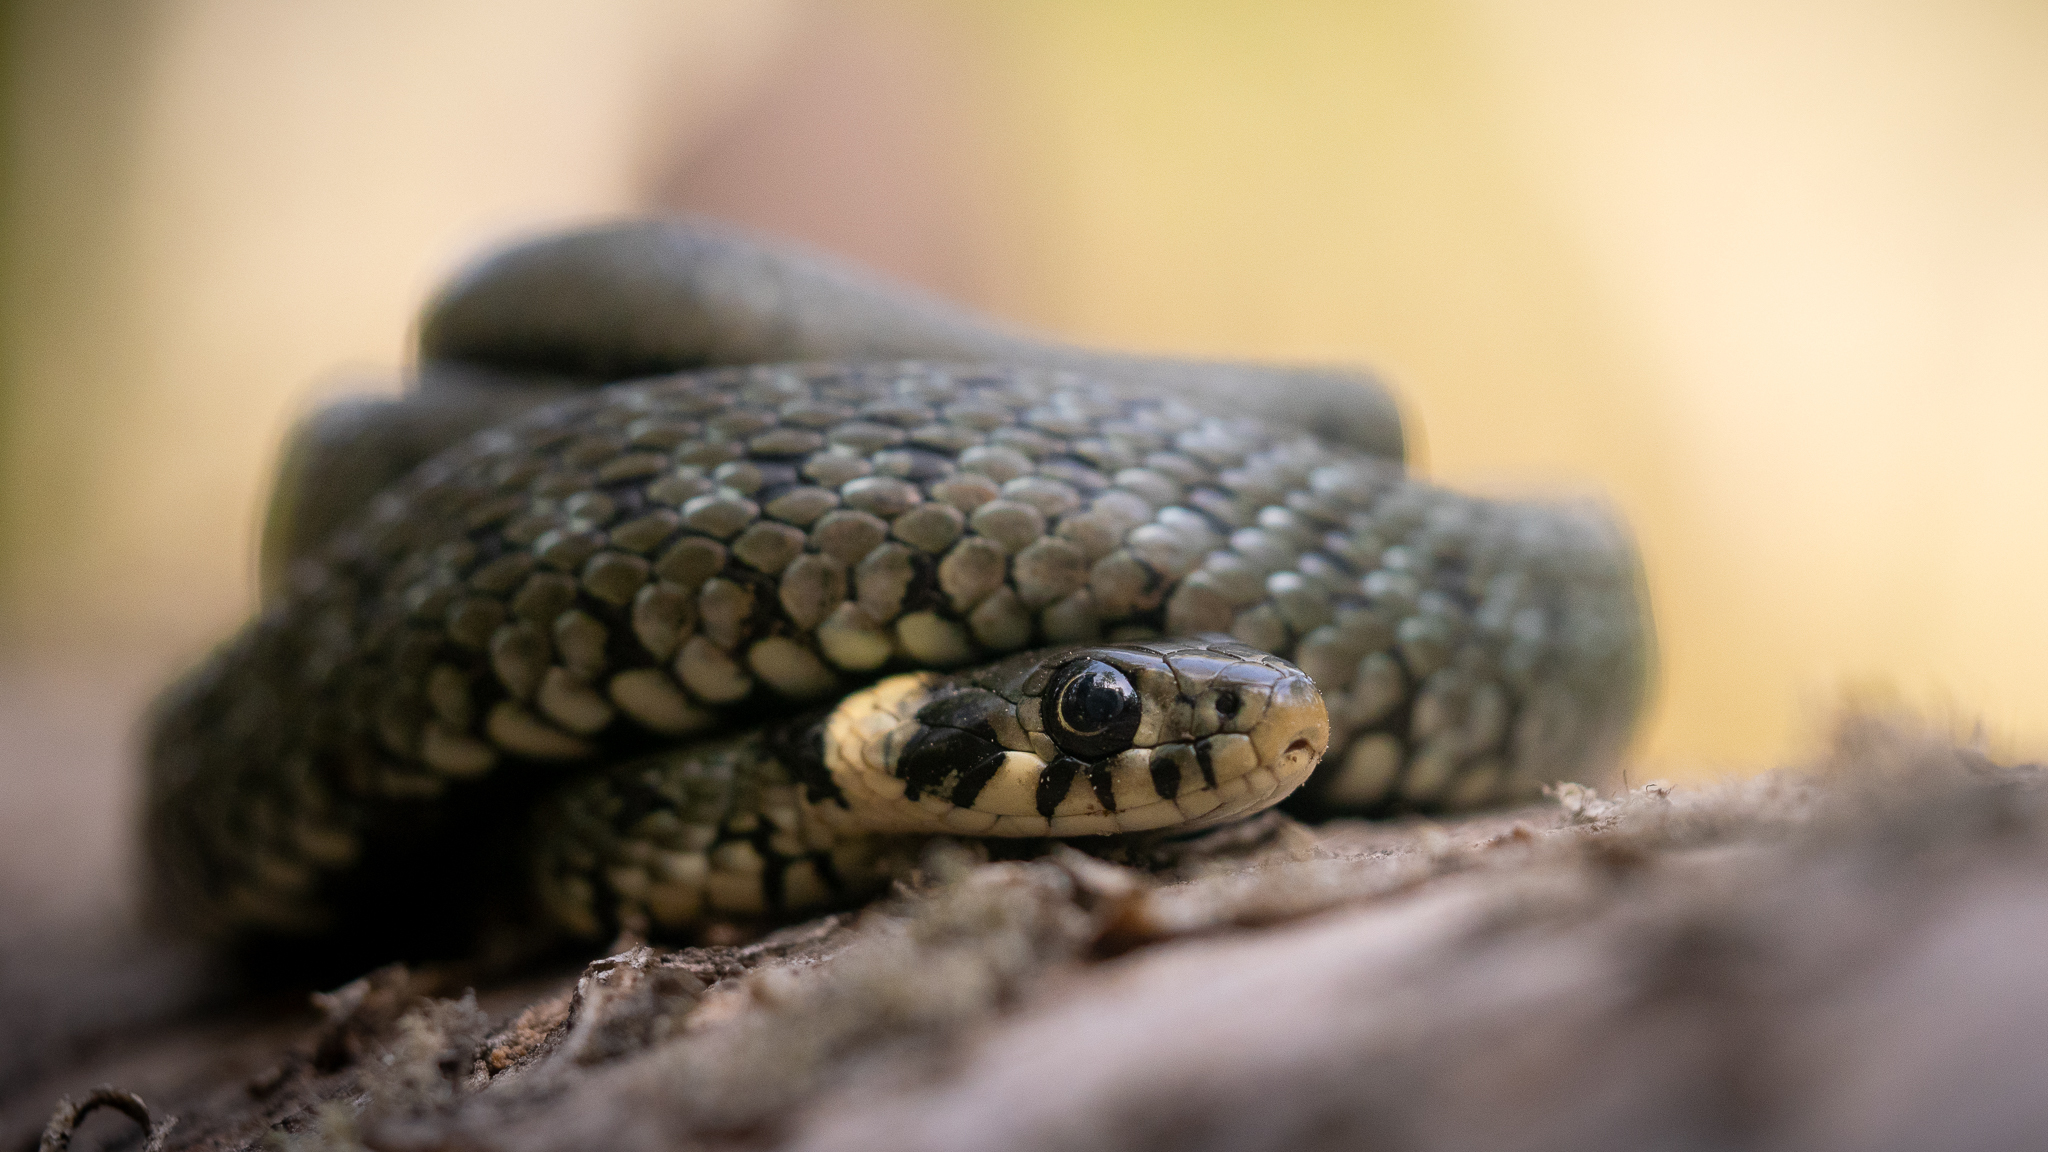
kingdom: Animalia
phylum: Chordata
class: Squamata
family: Colubridae
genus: Natrix
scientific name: Natrix natrix
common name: Grass snake
